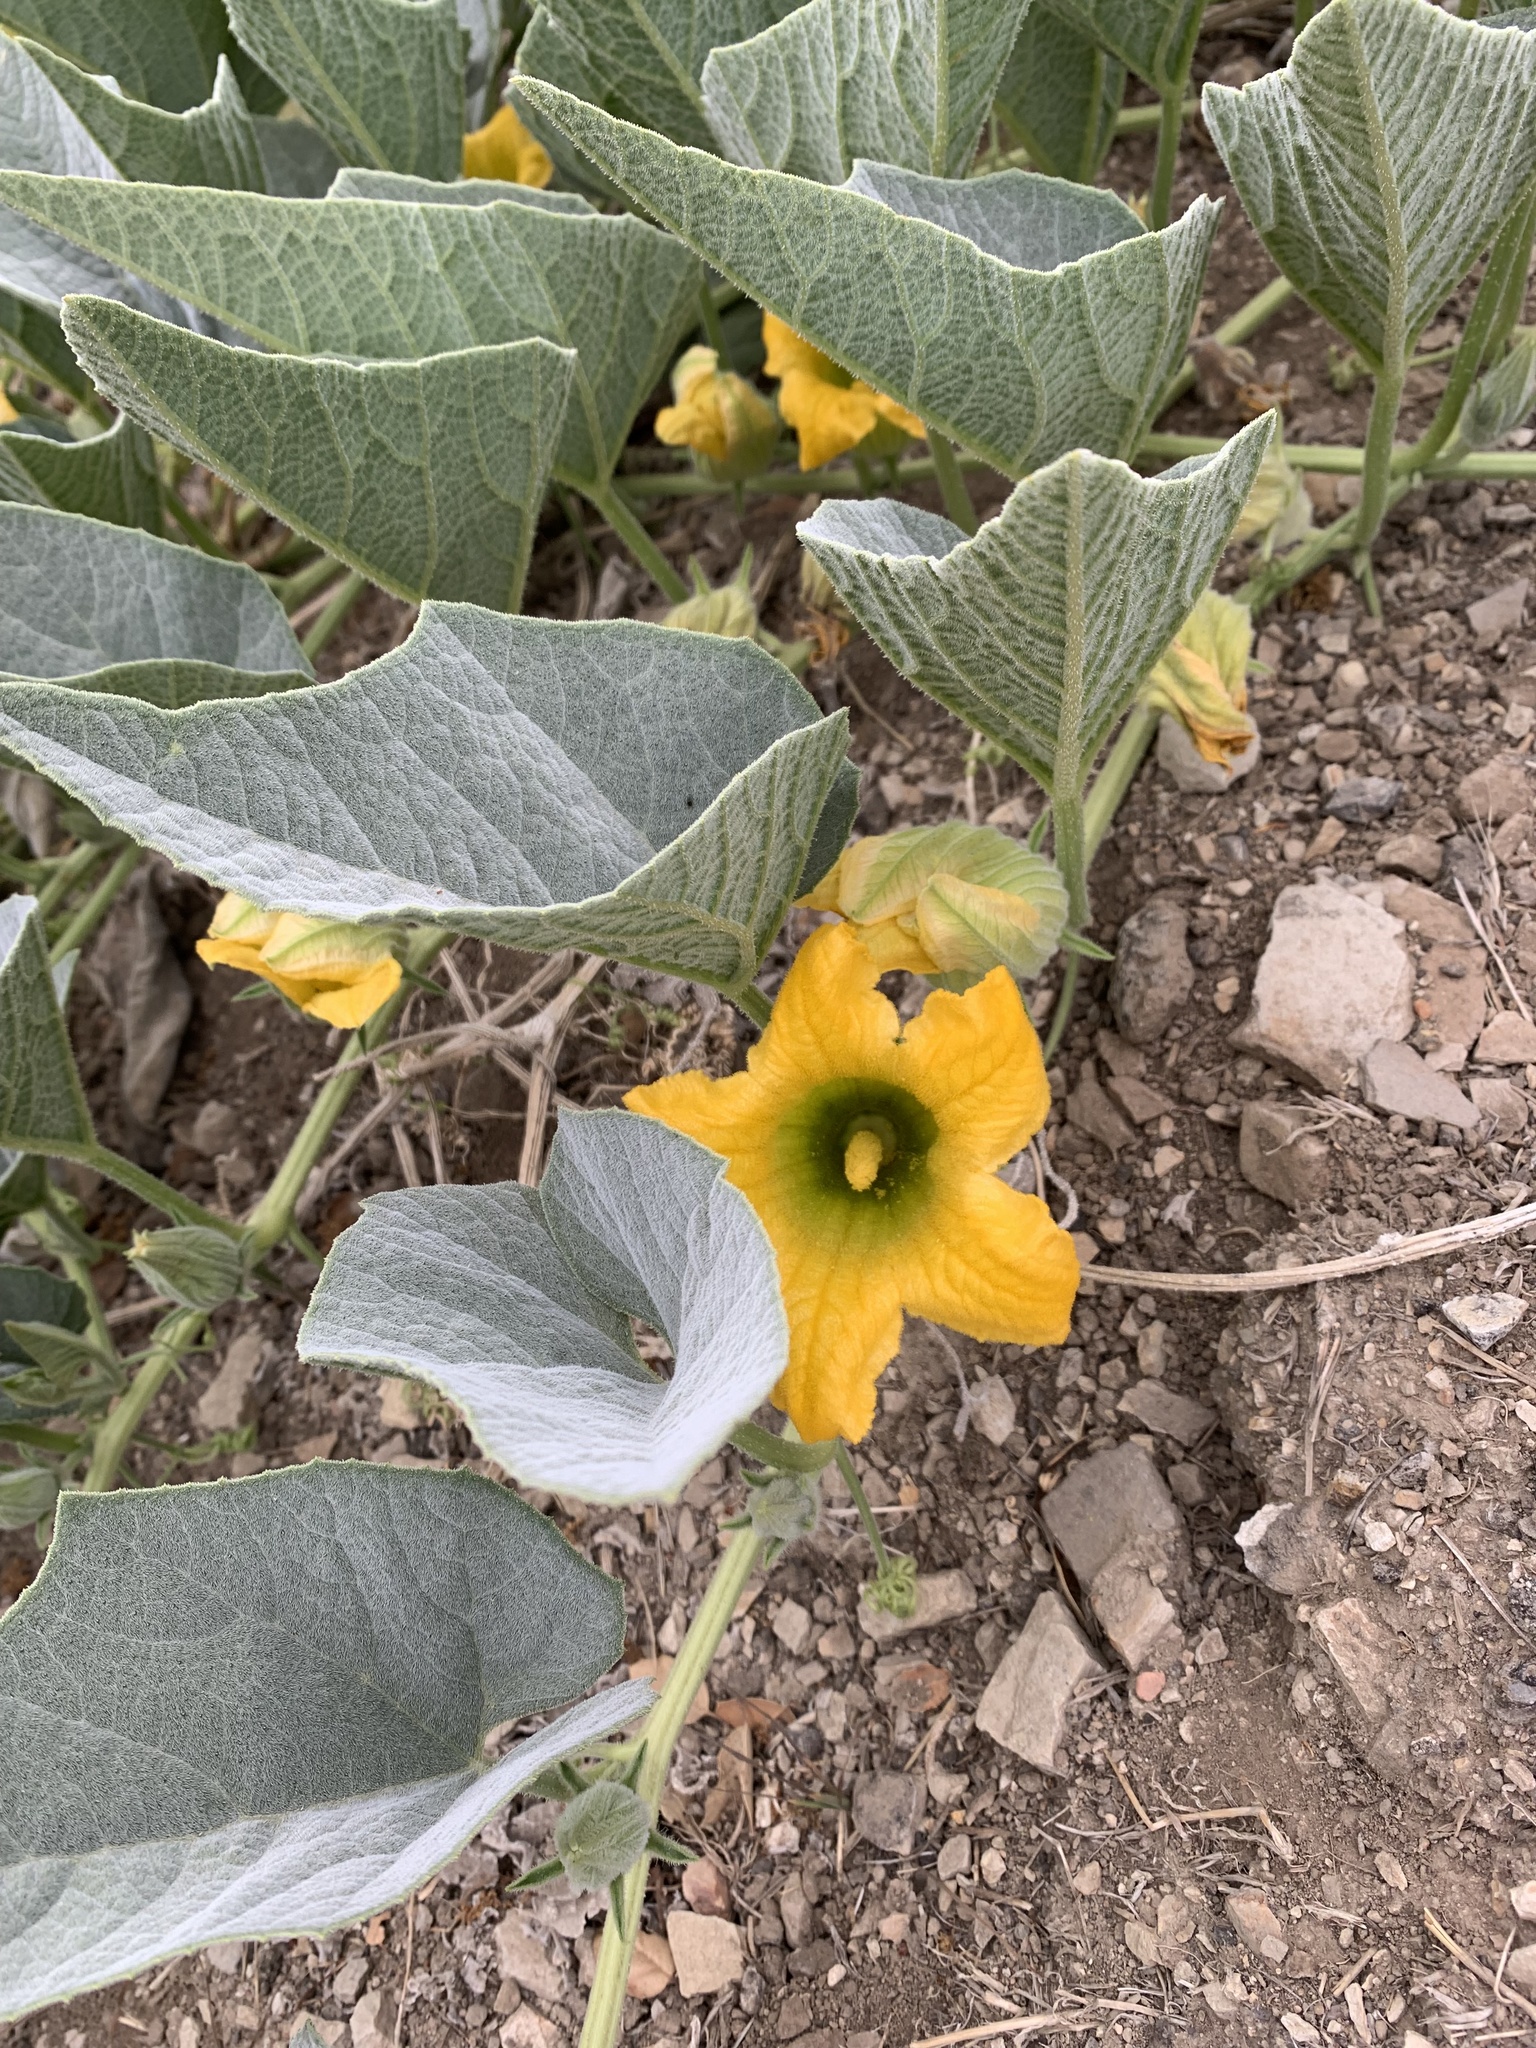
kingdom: Plantae
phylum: Tracheophyta
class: Magnoliopsida
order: Cucurbitales
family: Cucurbitaceae
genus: Cucurbita
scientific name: Cucurbita foetidissima
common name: Buffalo gourd
